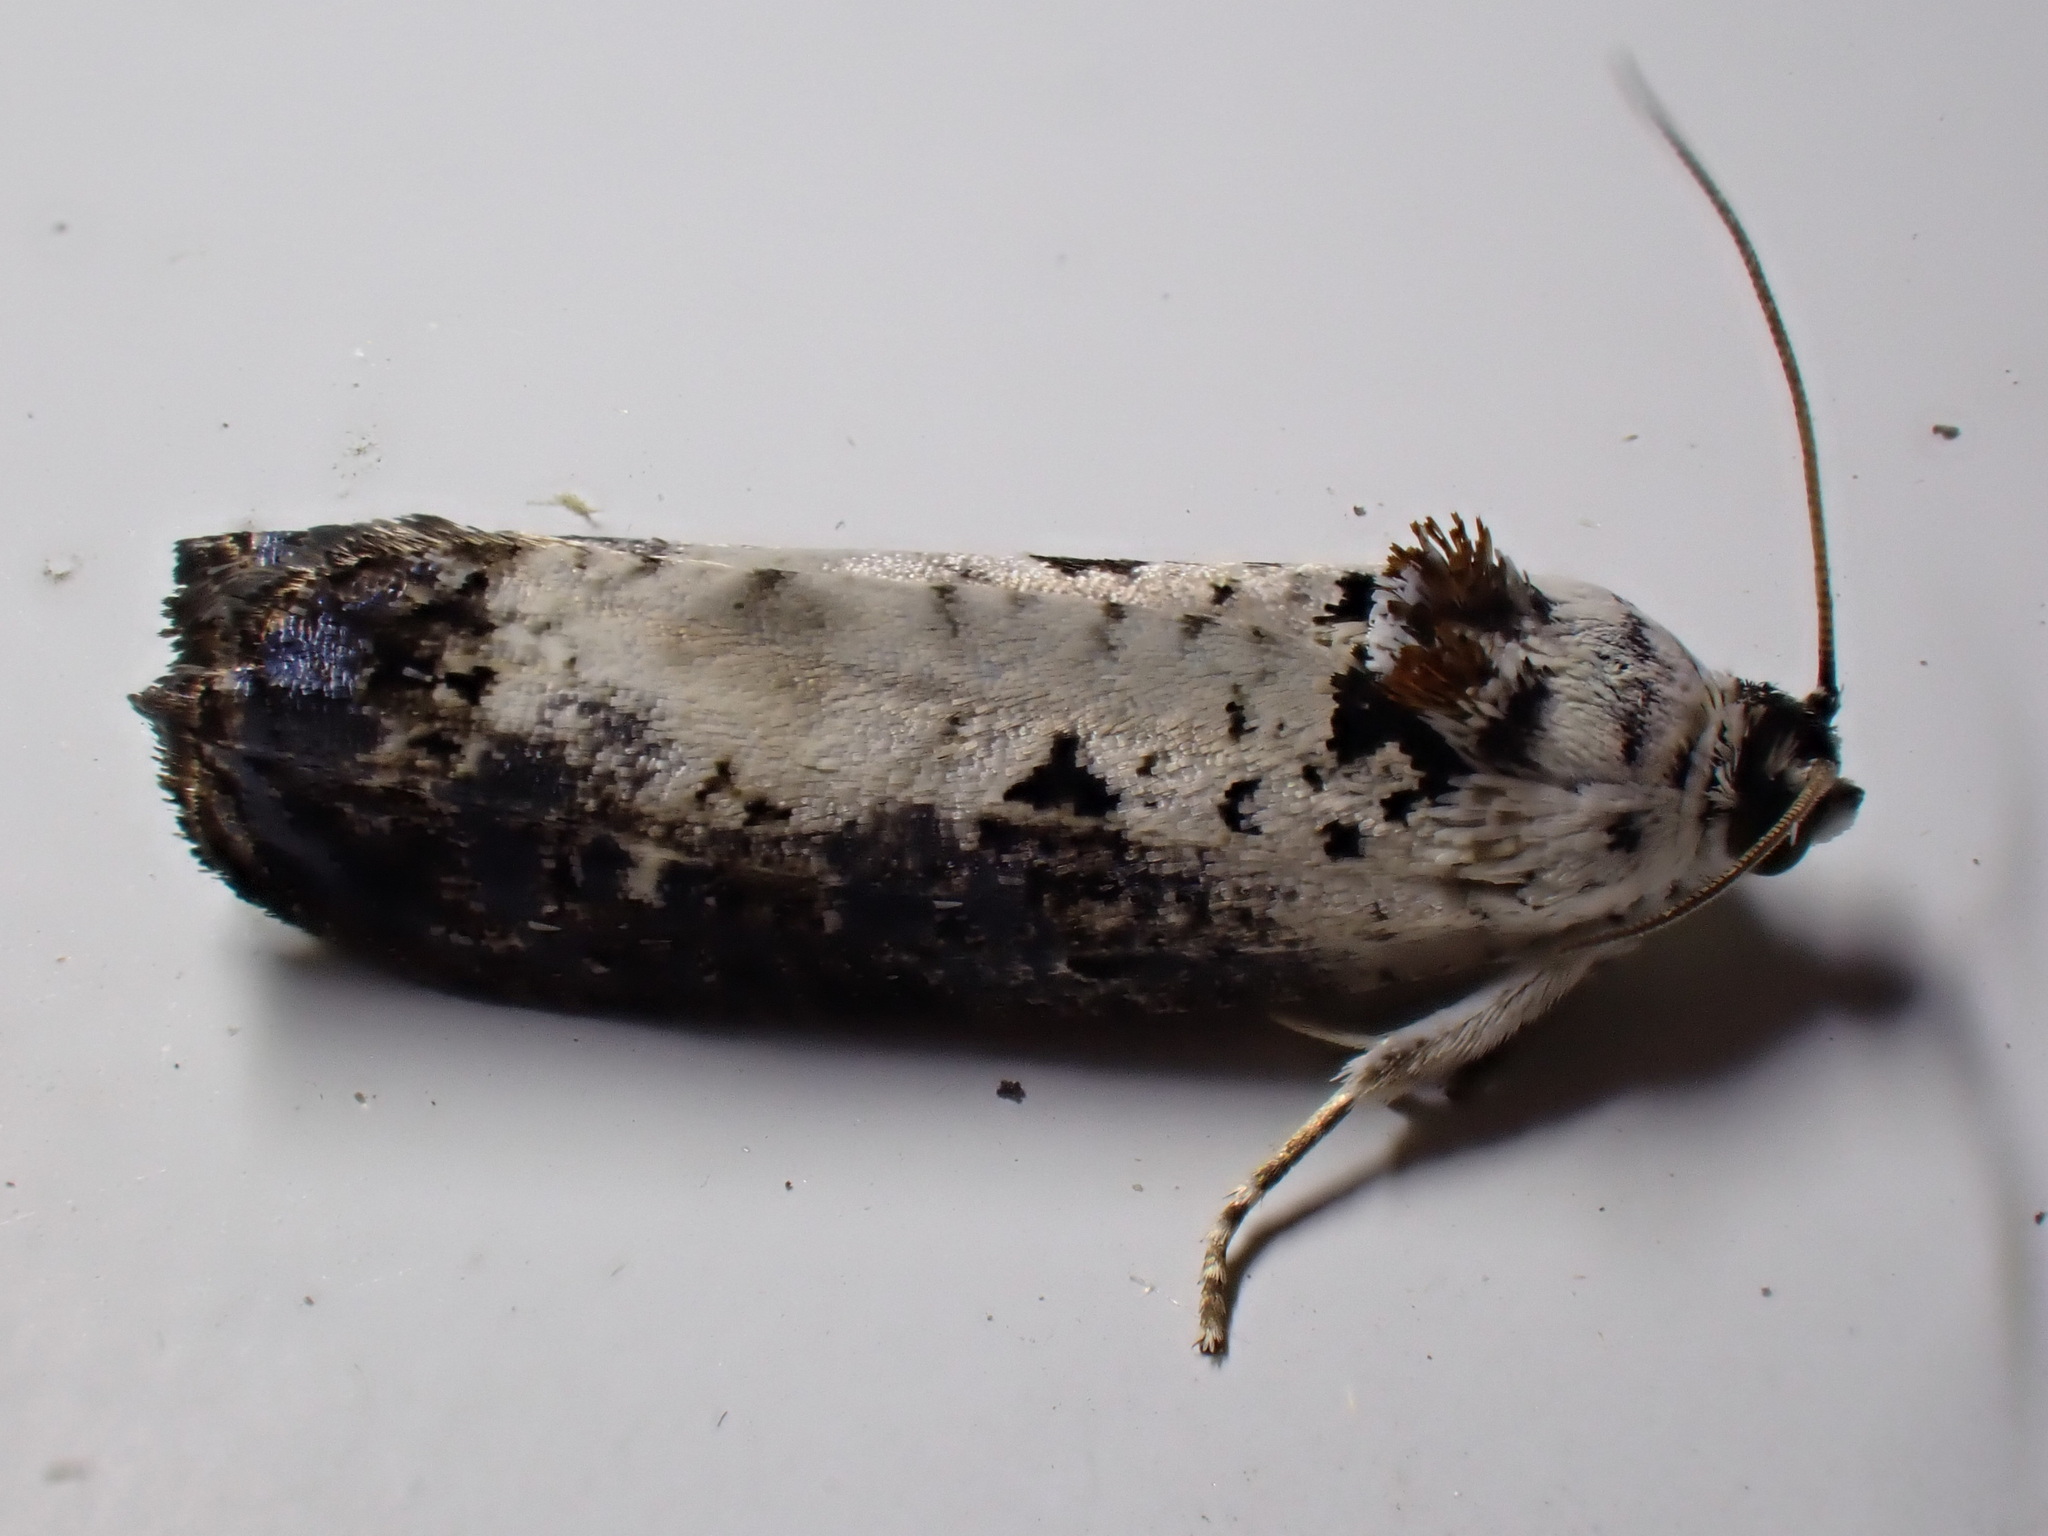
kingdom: Animalia
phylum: Arthropoda
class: Insecta
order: Lepidoptera
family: Tortricidae
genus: Hedya
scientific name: Hedya salicella
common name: Large tortricid moth
